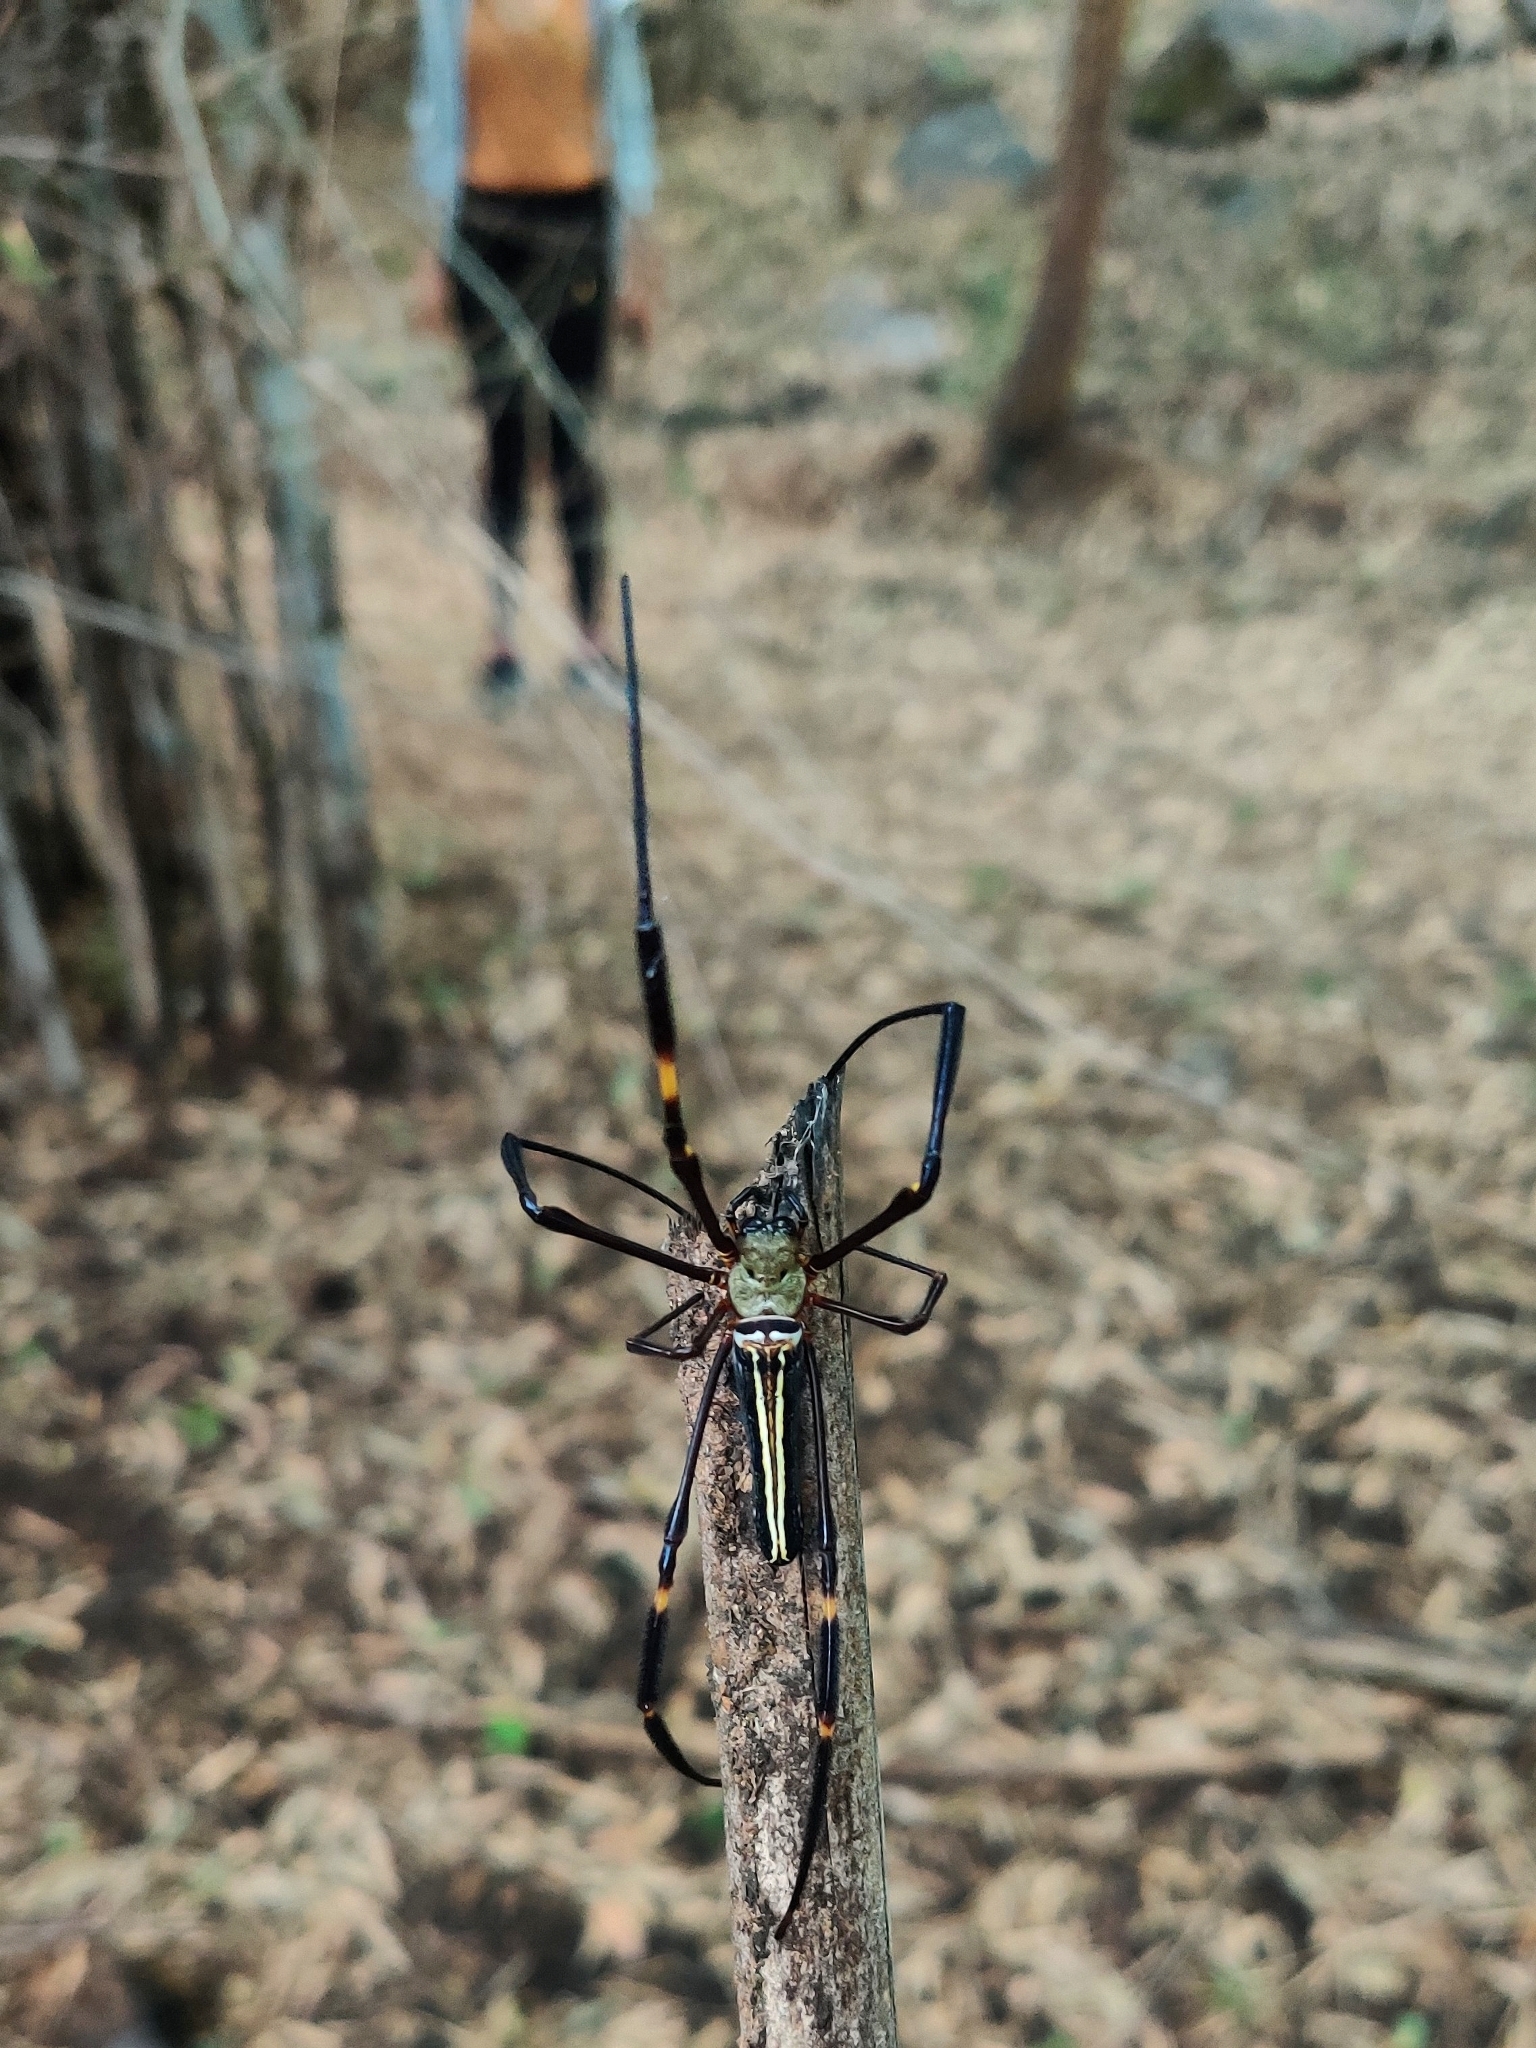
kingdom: Animalia
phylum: Arthropoda
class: Arachnida
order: Araneae
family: Araneidae
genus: Nephila
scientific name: Nephila pilipes
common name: Giant golden orb weaver
